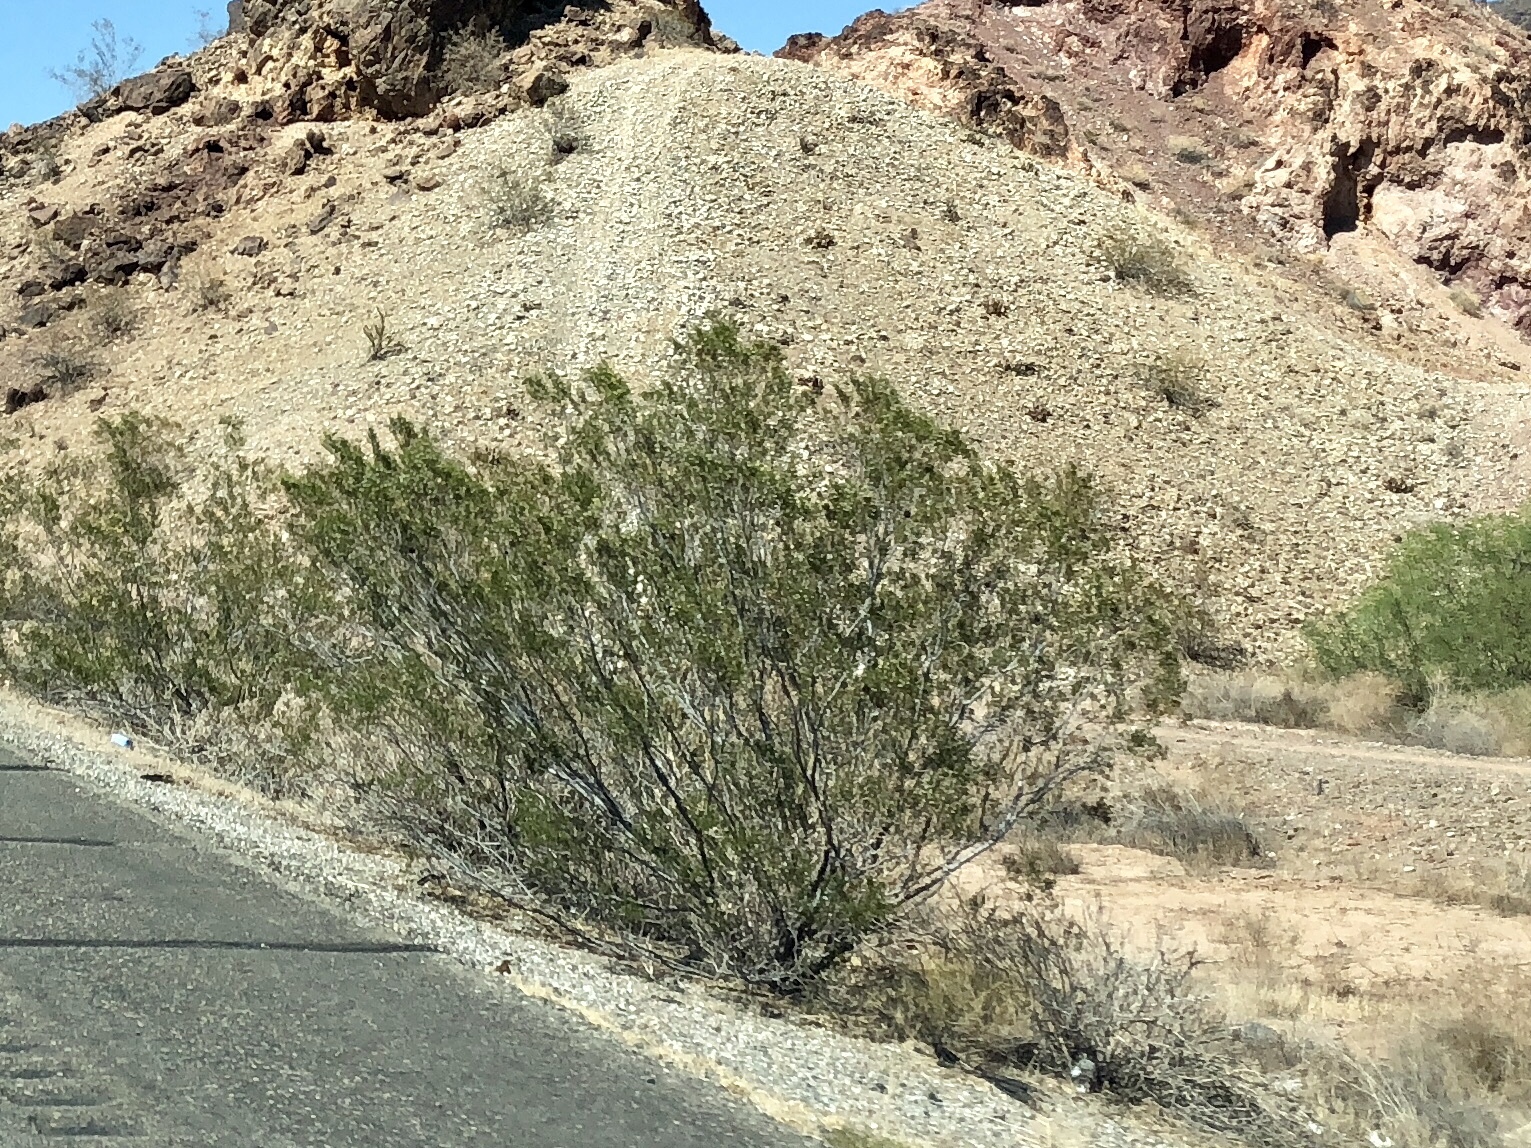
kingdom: Plantae
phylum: Tracheophyta
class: Magnoliopsida
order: Zygophyllales
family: Zygophyllaceae
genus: Larrea
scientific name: Larrea tridentata
